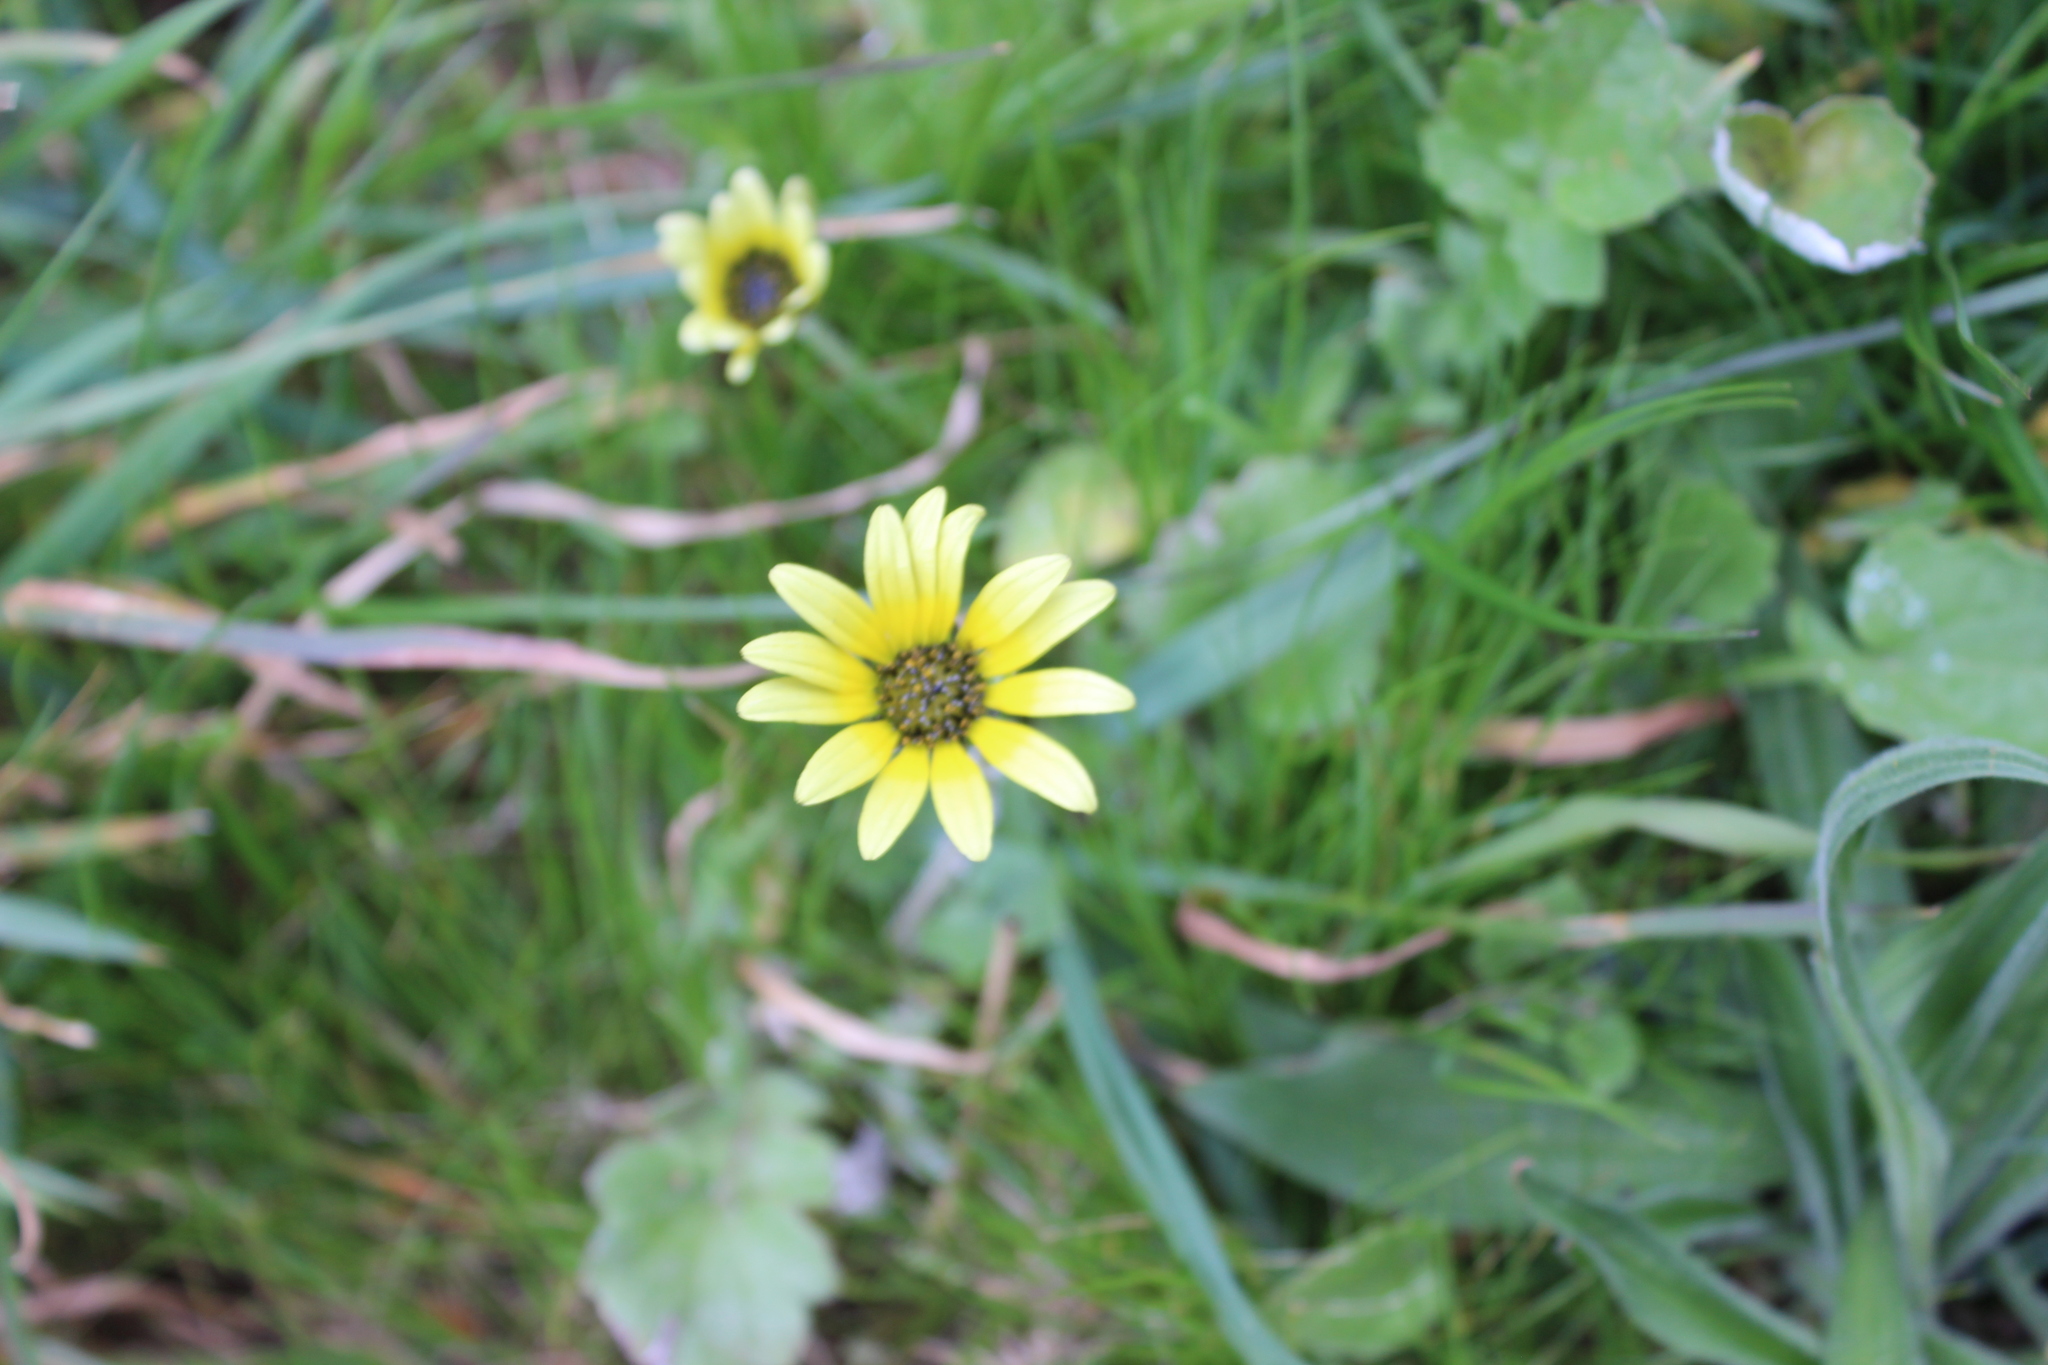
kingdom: Plantae
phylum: Tracheophyta
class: Magnoliopsida
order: Asterales
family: Asteraceae
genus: Arctotheca
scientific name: Arctotheca calendula
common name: Capeweed
